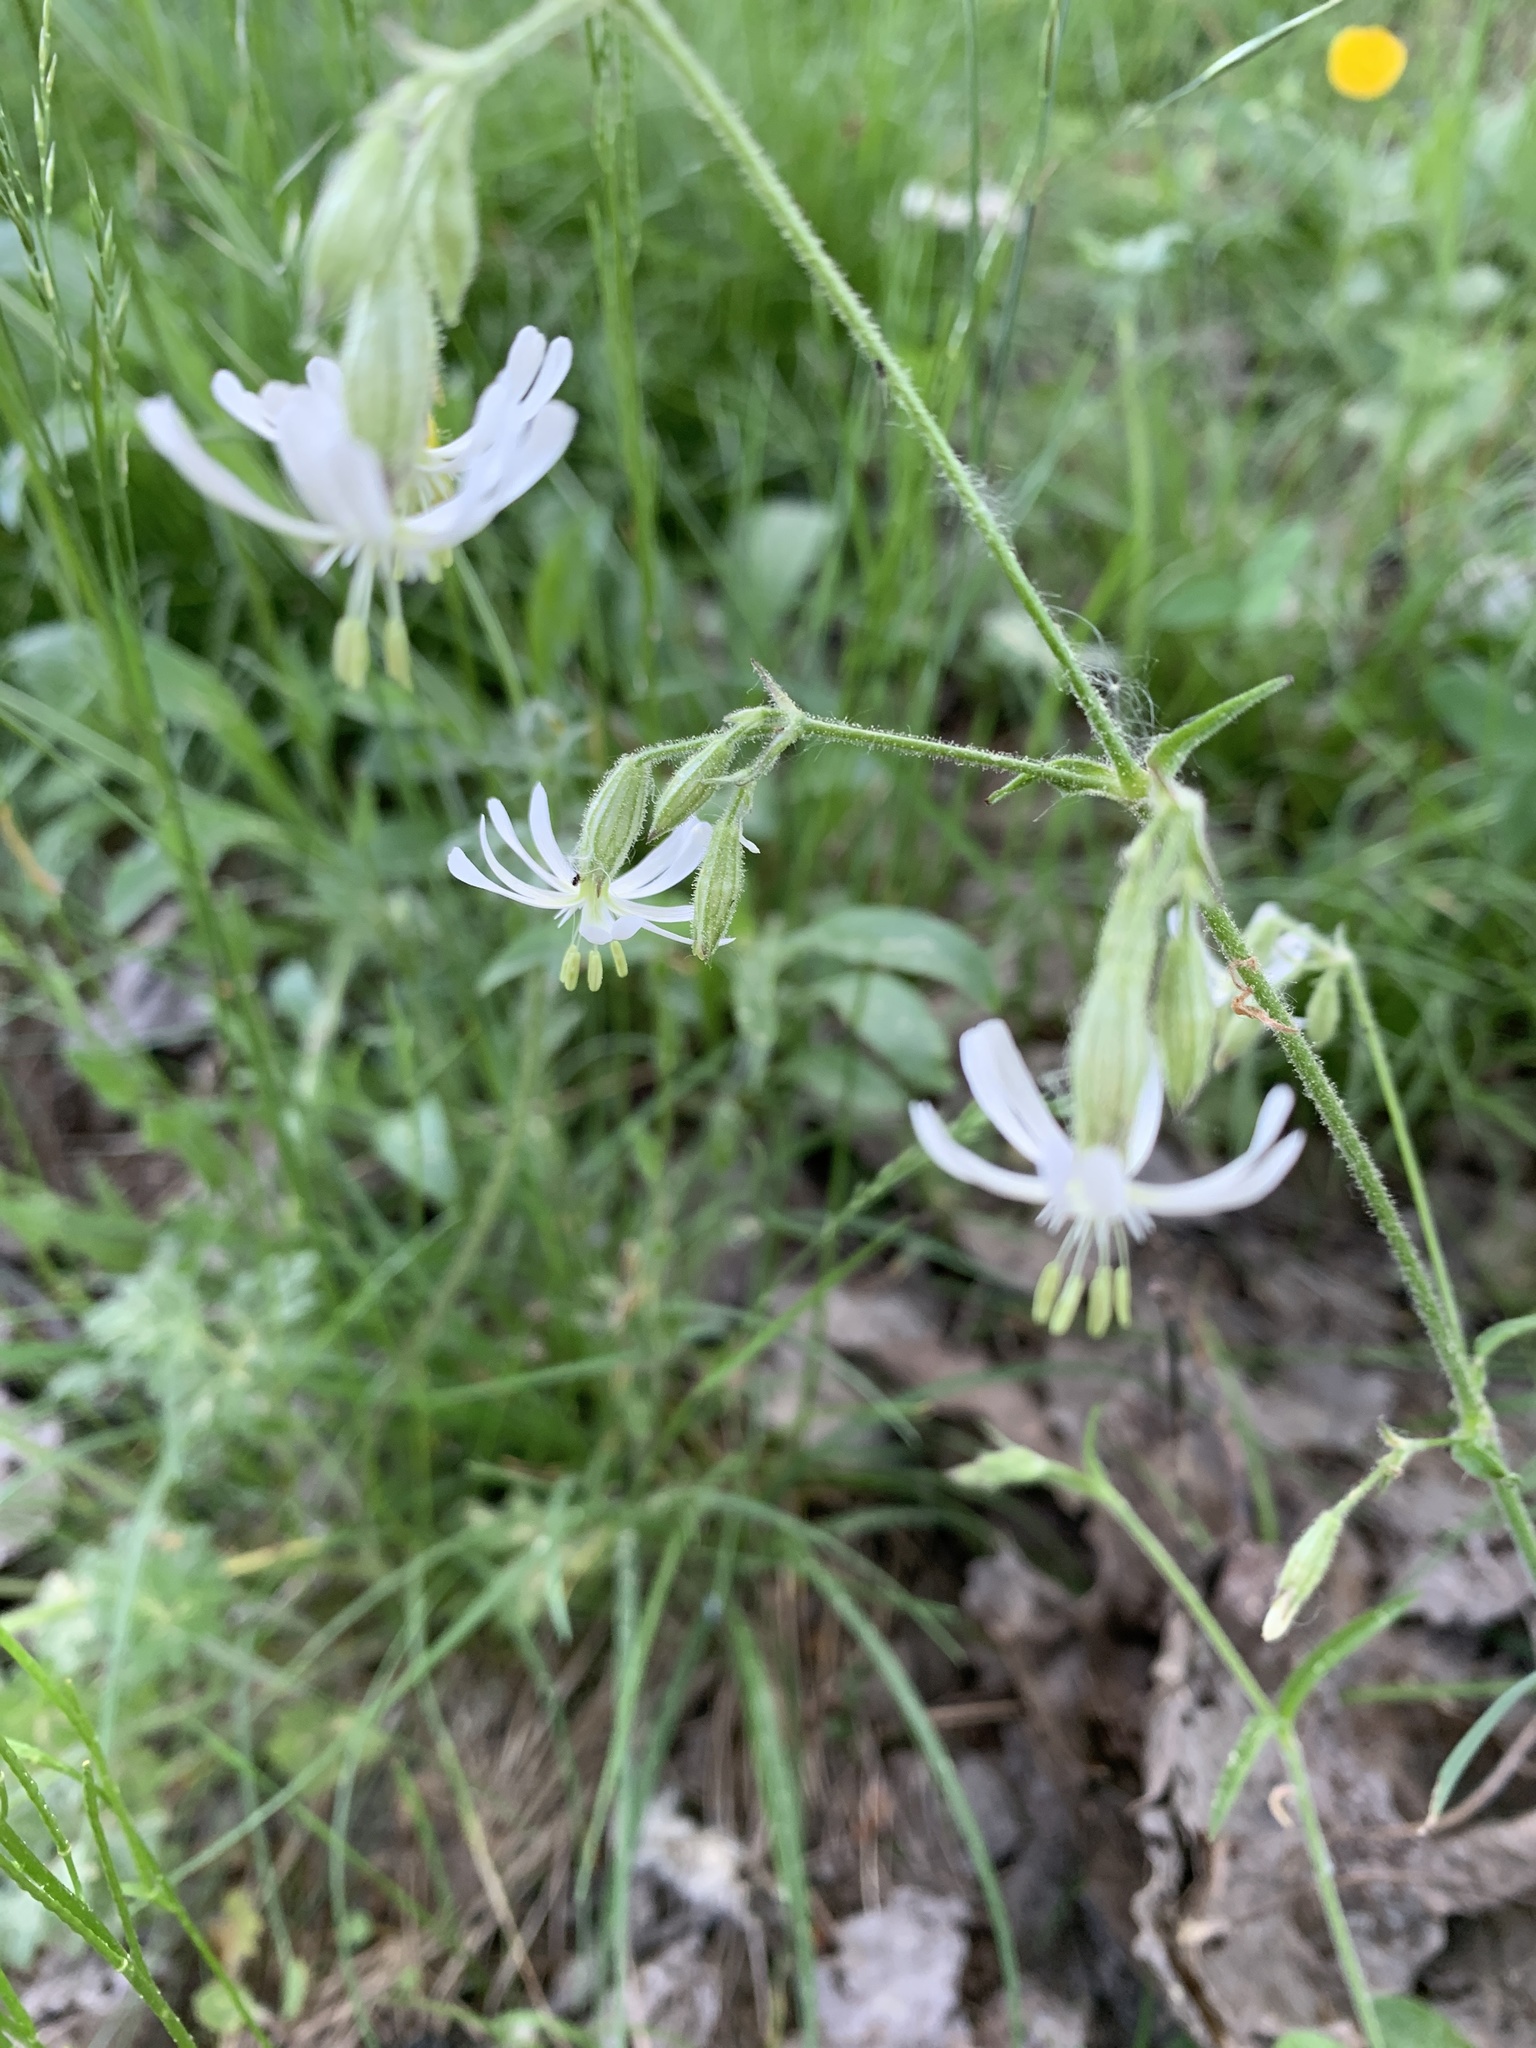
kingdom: Plantae
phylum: Tracheophyta
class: Magnoliopsida
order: Caryophyllales
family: Caryophyllaceae
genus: Silene
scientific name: Silene nutans
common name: Nottingham catchfly
